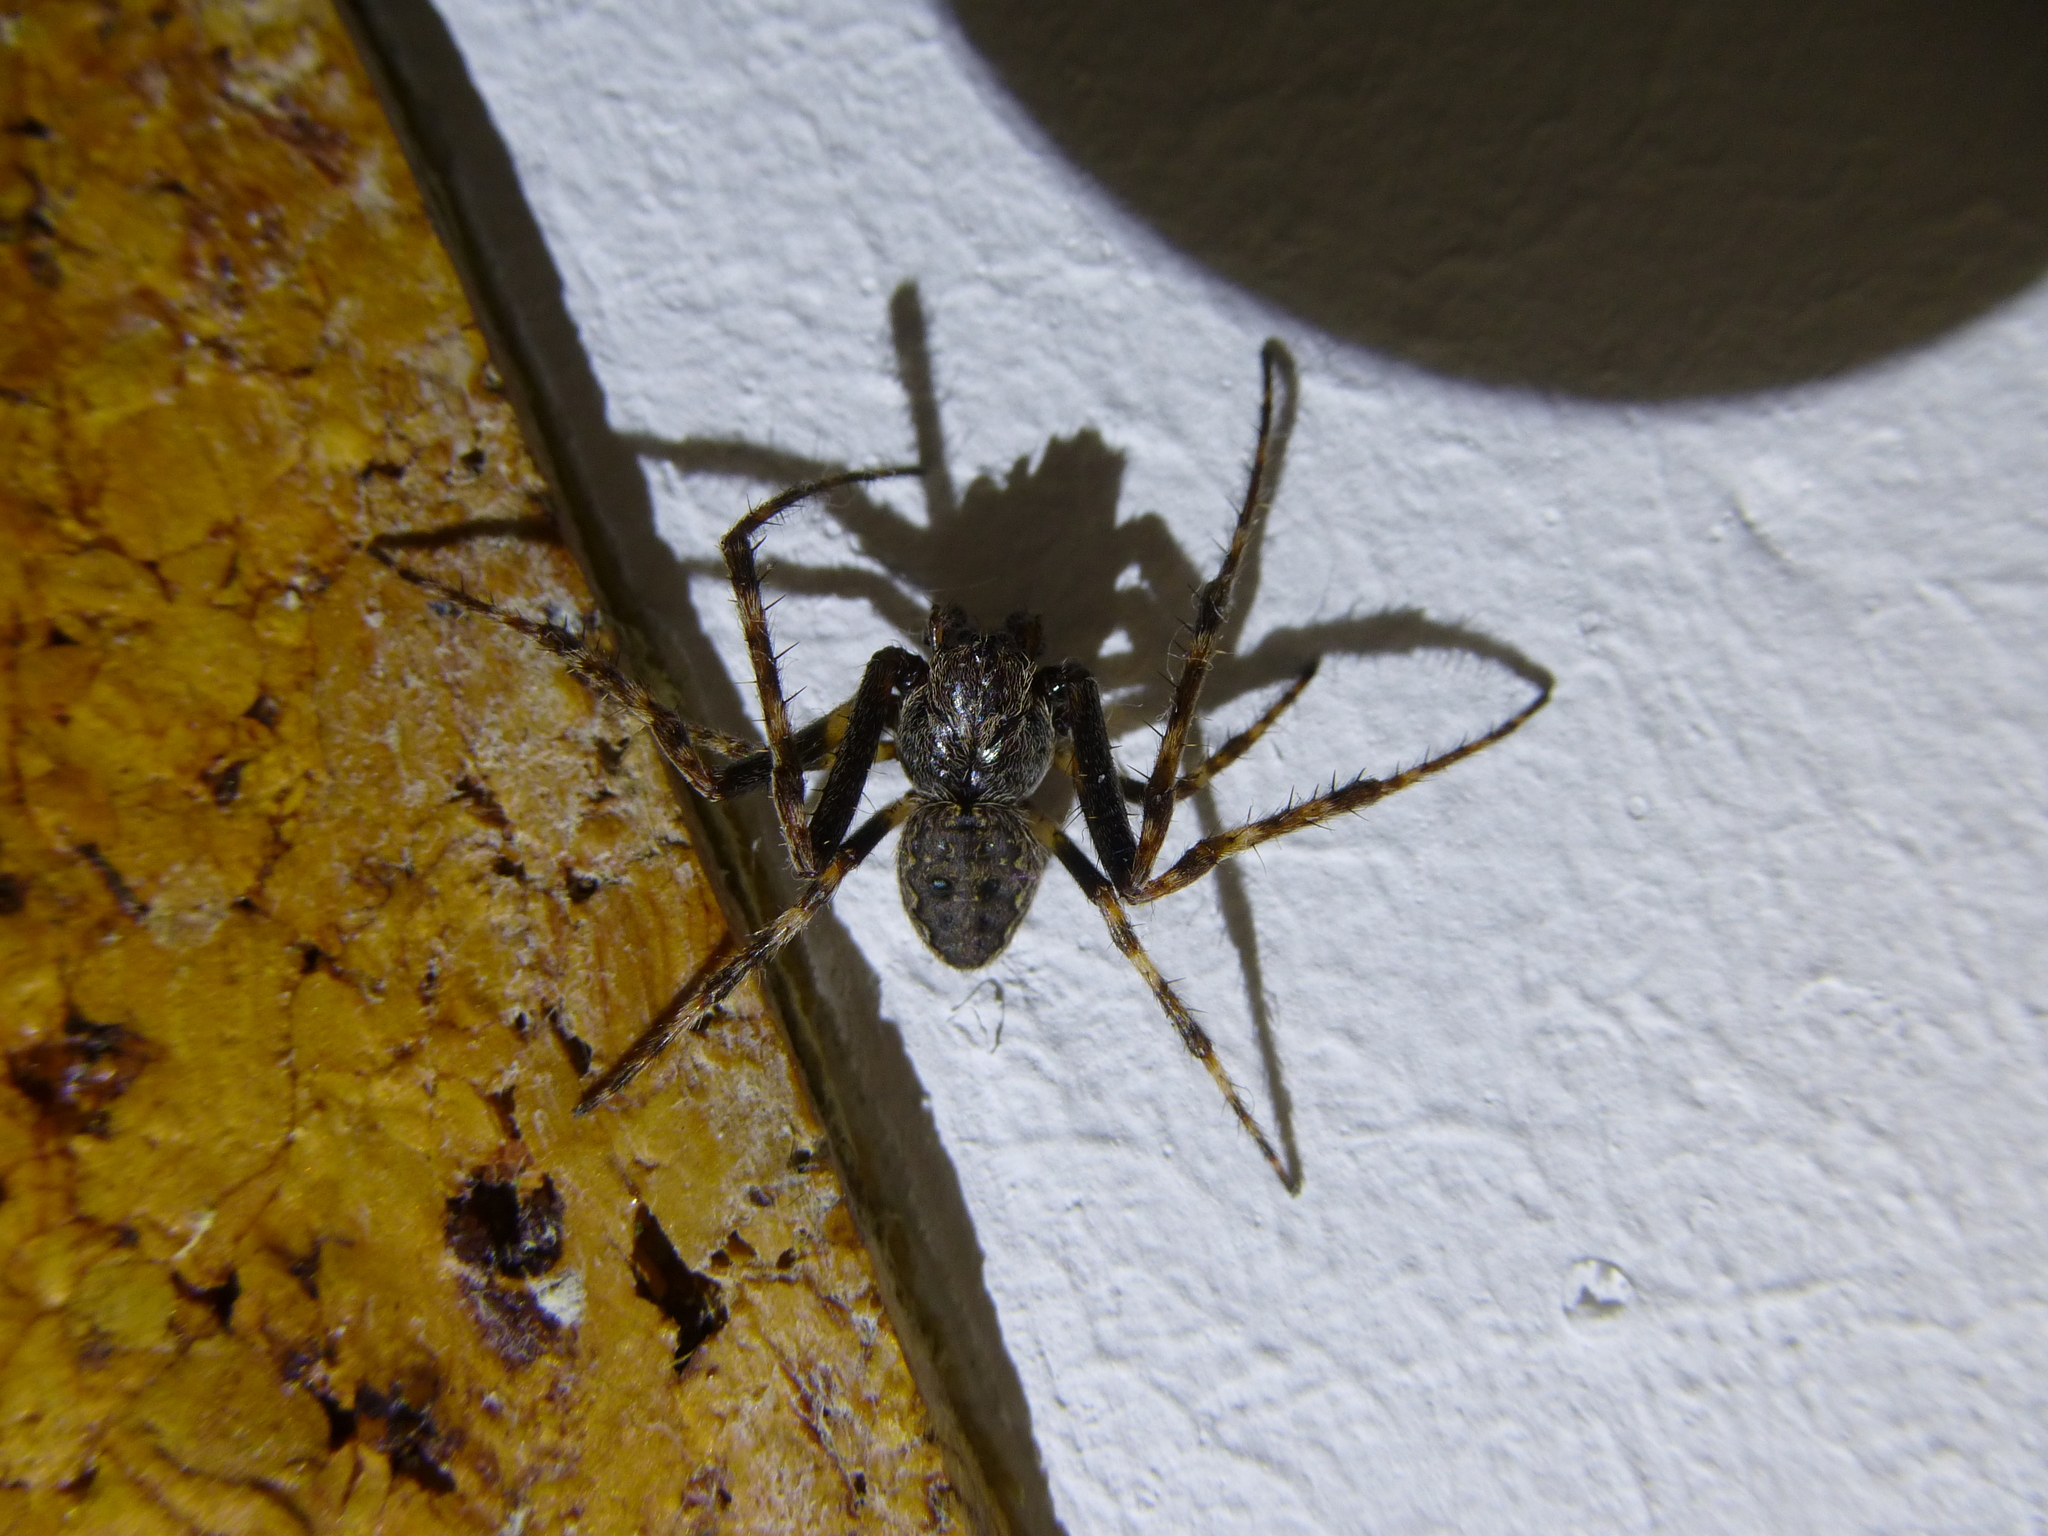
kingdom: Animalia
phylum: Arthropoda
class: Arachnida
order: Araneae
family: Araneidae
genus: Nuctenea
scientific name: Nuctenea umbratica
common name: Toad spider
